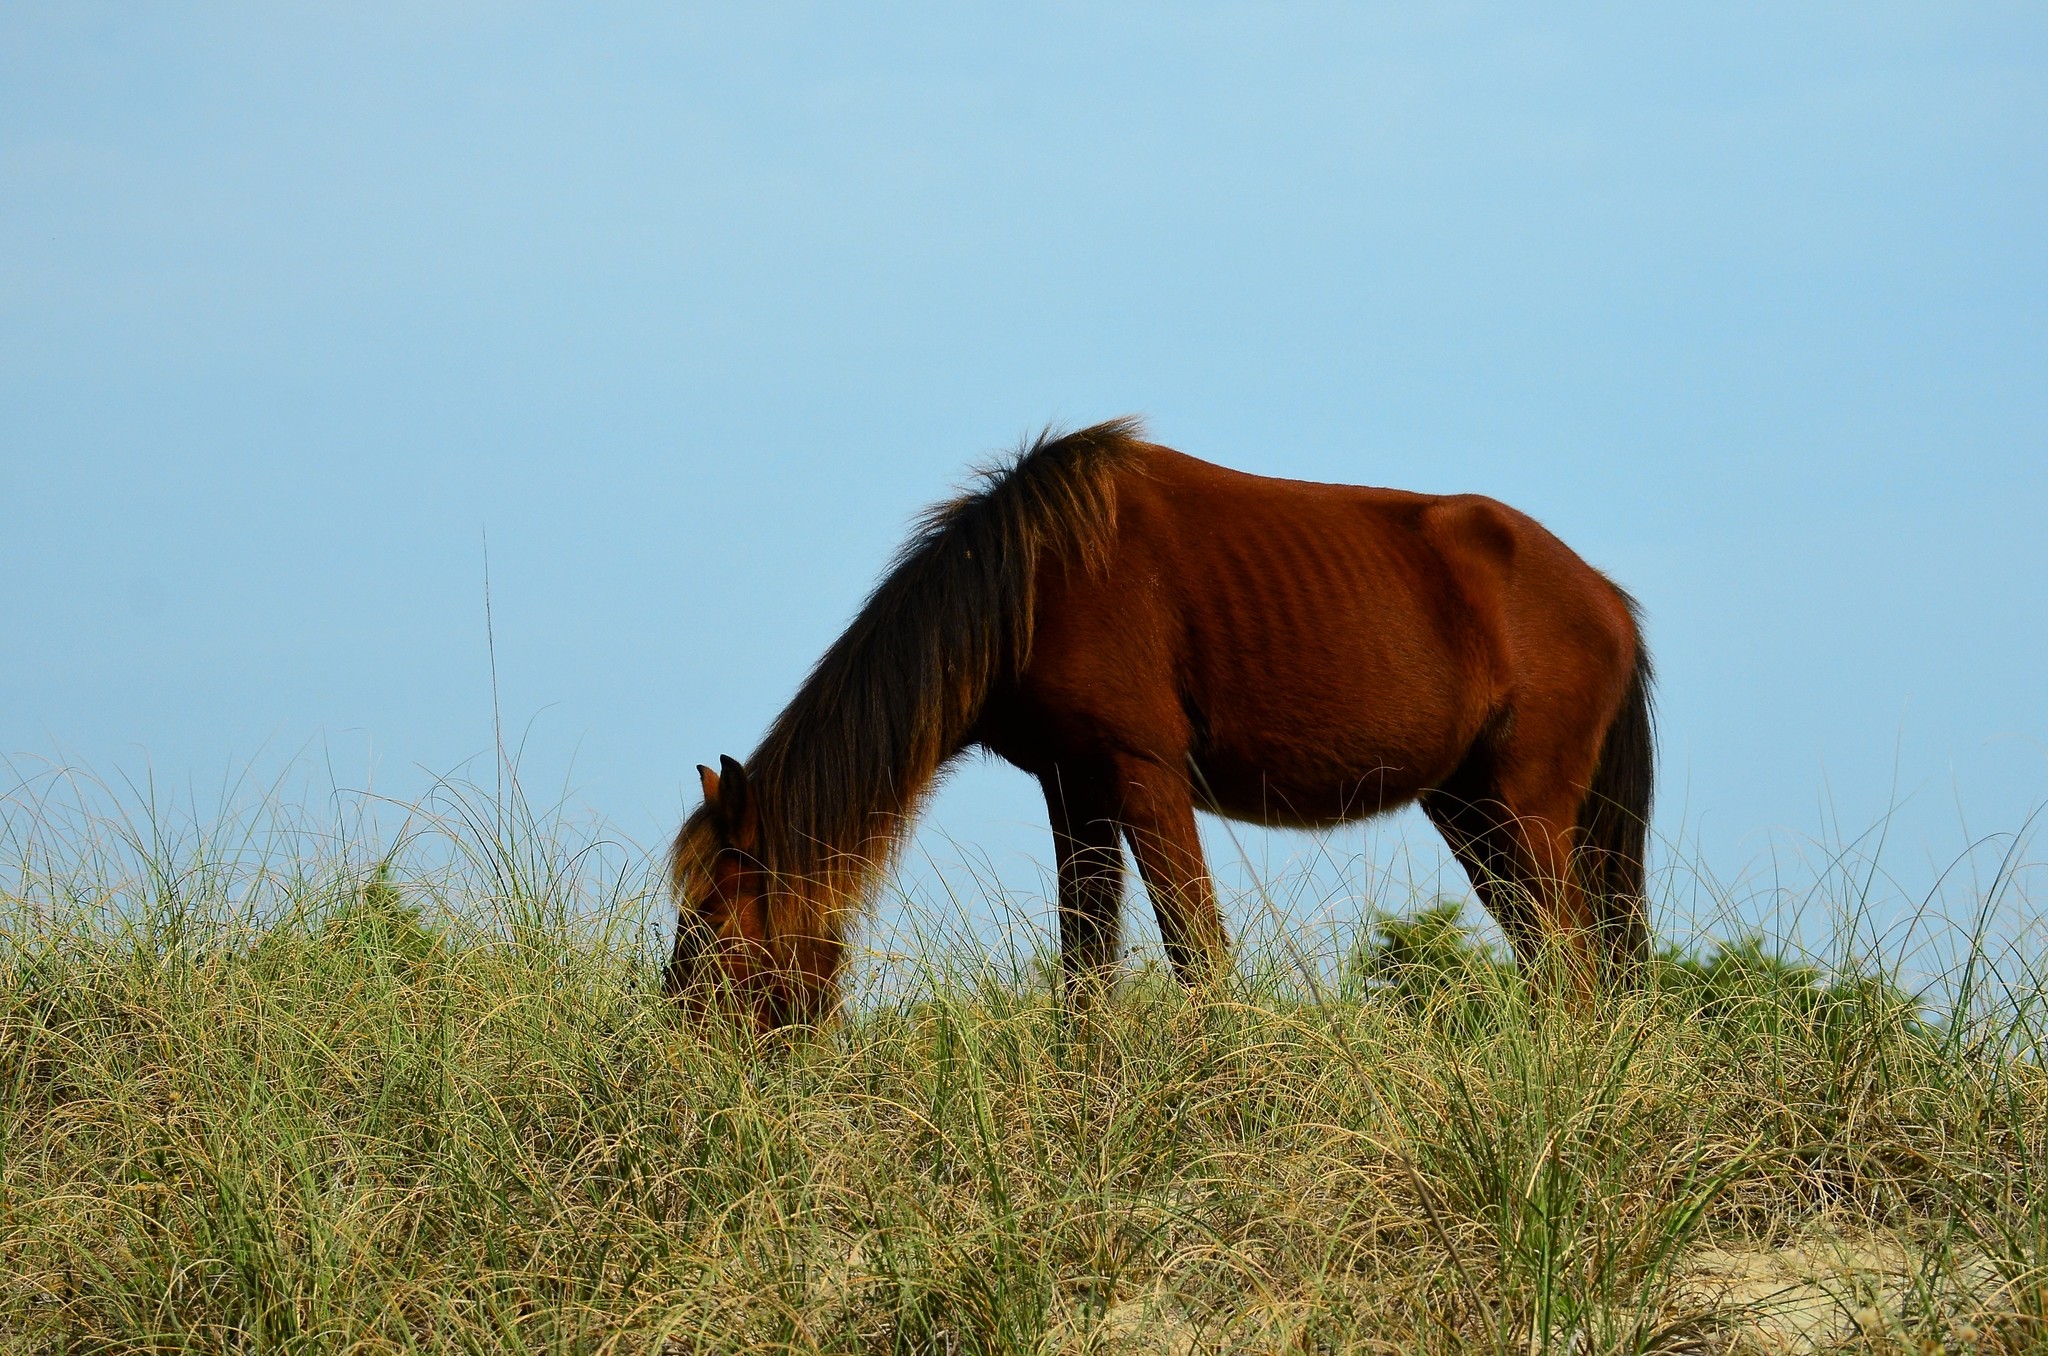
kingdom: Animalia
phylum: Chordata
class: Mammalia
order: Perissodactyla
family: Equidae
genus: Equus
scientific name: Equus caballus
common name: Horse
